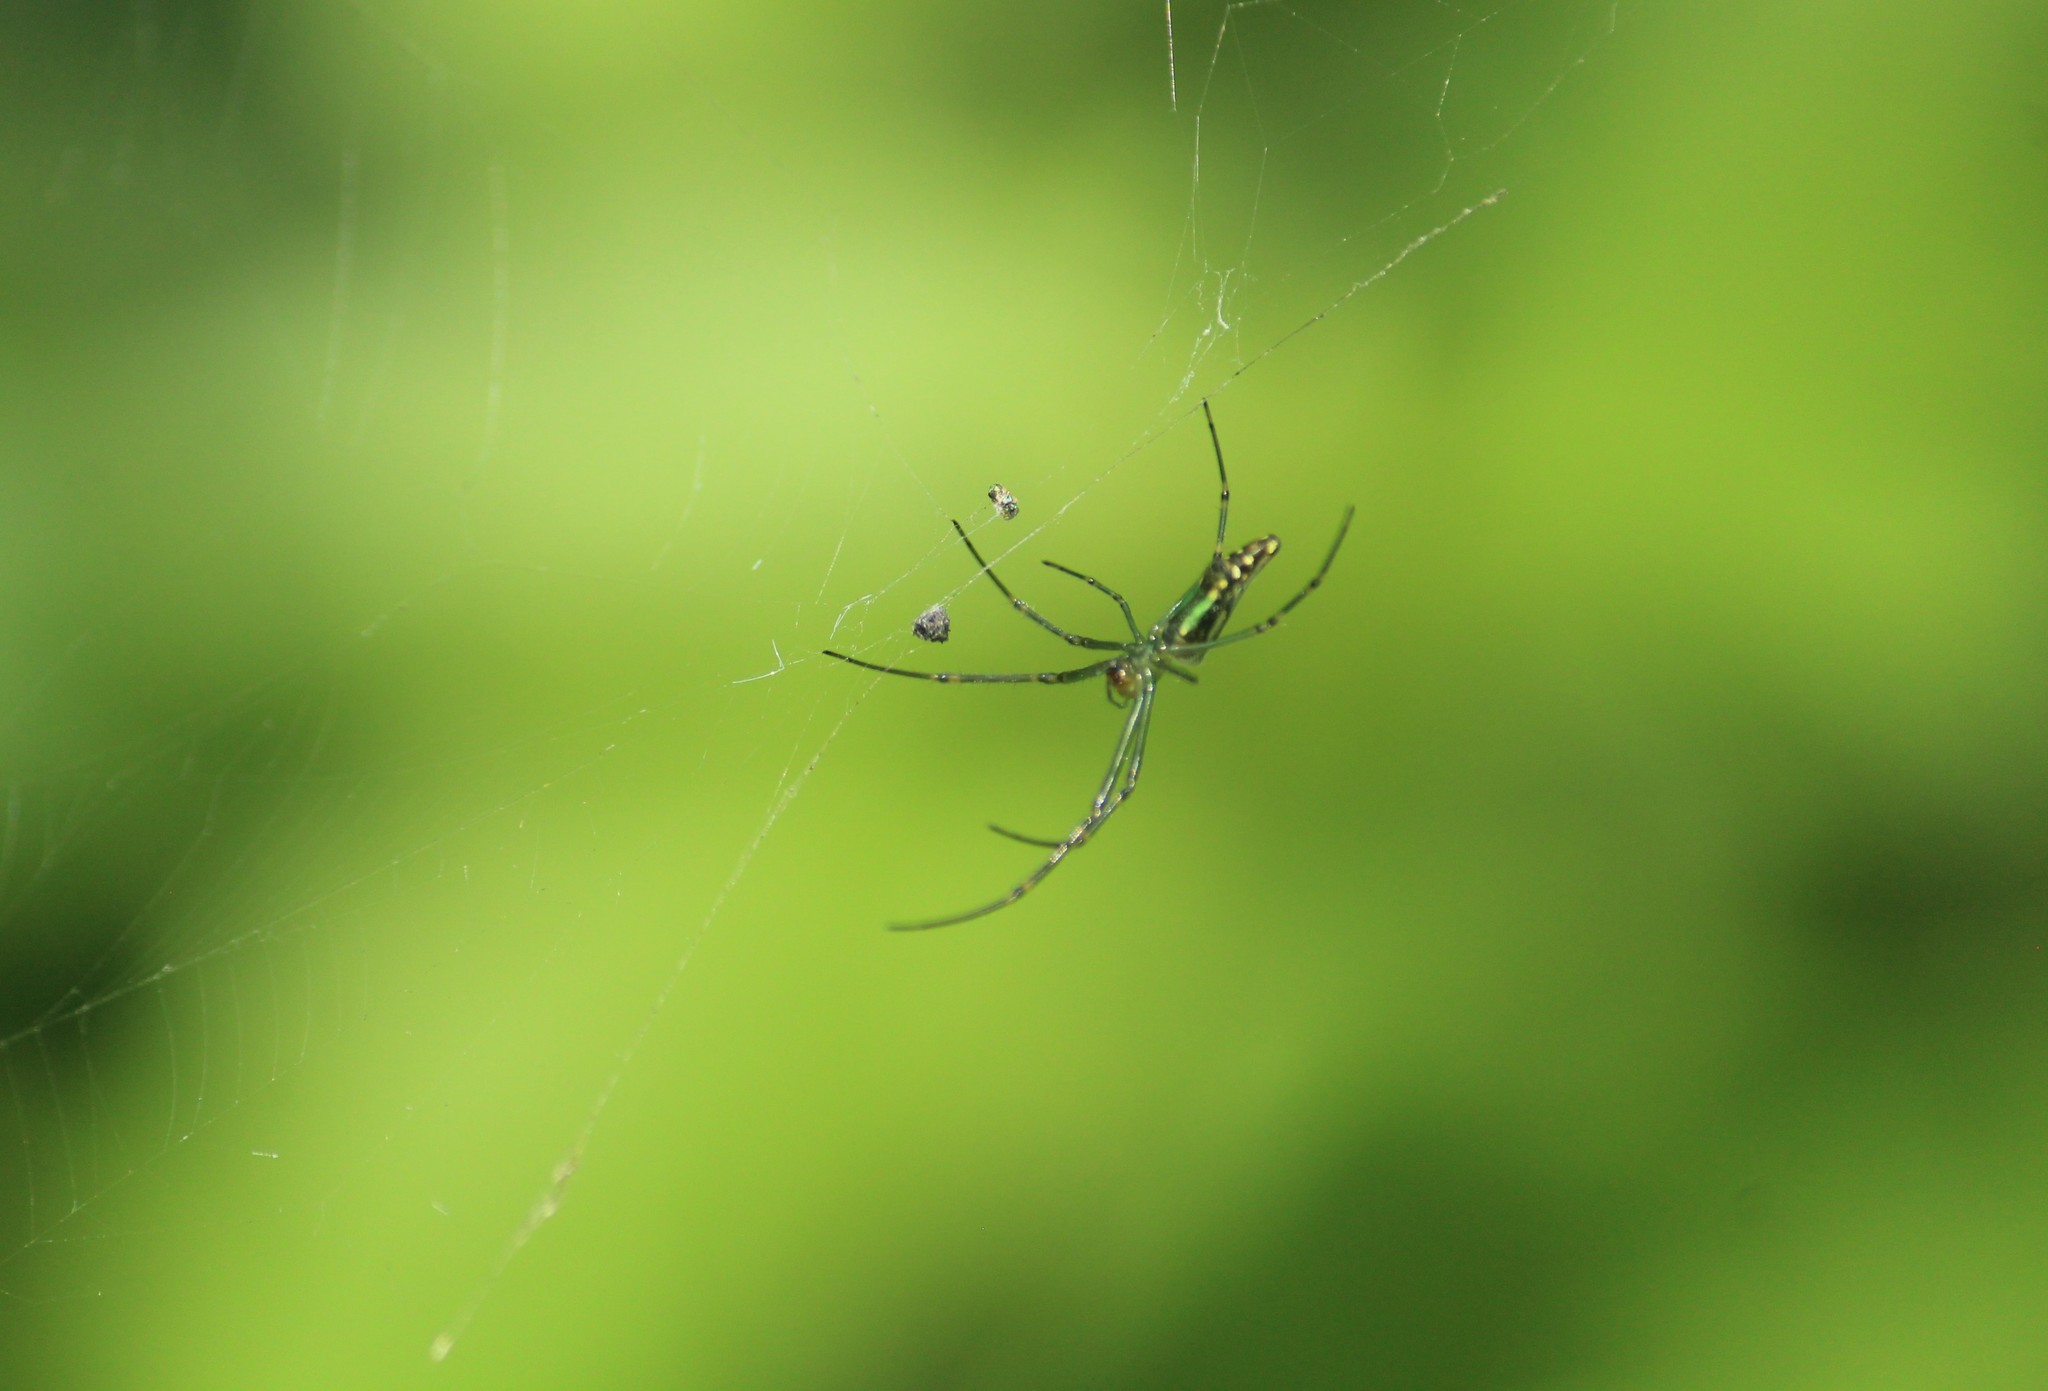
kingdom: Animalia
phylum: Arthropoda
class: Arachnida
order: Araneae
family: Tetragnathidae
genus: Leucauge
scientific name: Leucauge decorata
